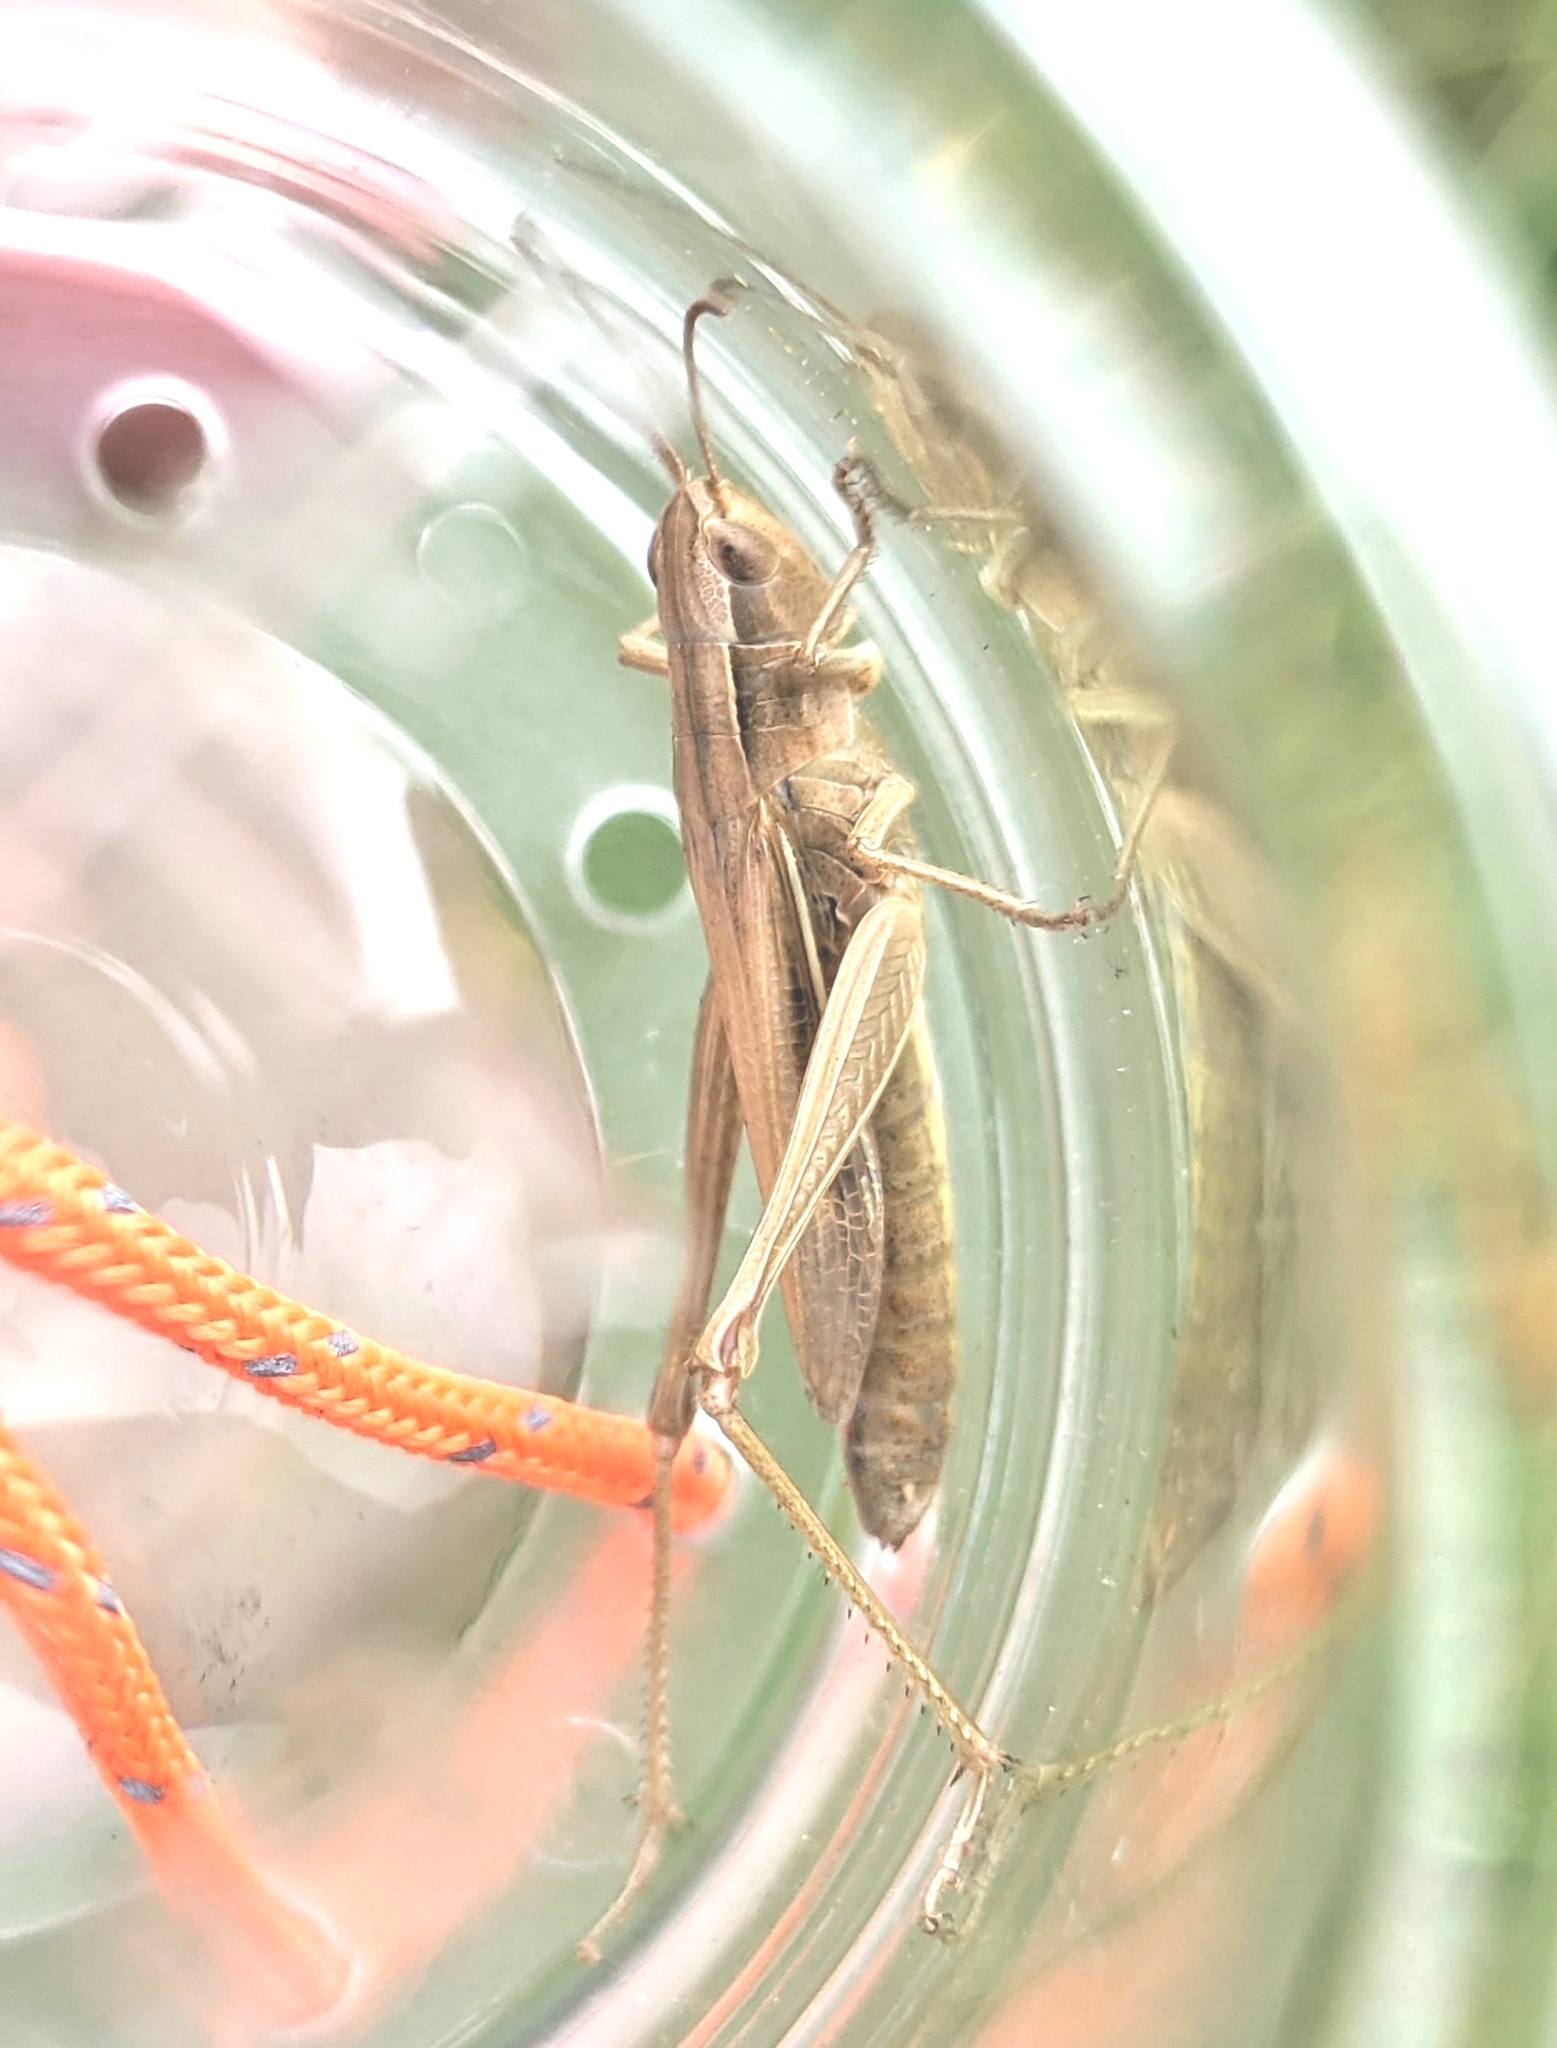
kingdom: Animalia
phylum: Arthropoda
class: Insecta
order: Orthoptera
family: Acrididae
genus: Chorthippus
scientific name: Chorthippus albomarginatus
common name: Lesser marsh grasshopper
